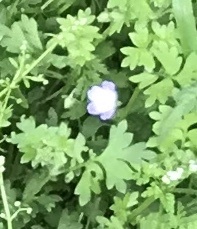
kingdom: Plantae
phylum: Tracheophyta
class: Magnoliopsida
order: Boraginales
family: Hydrophyllaceae
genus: Nemophila
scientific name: Nemophila phacelioides
